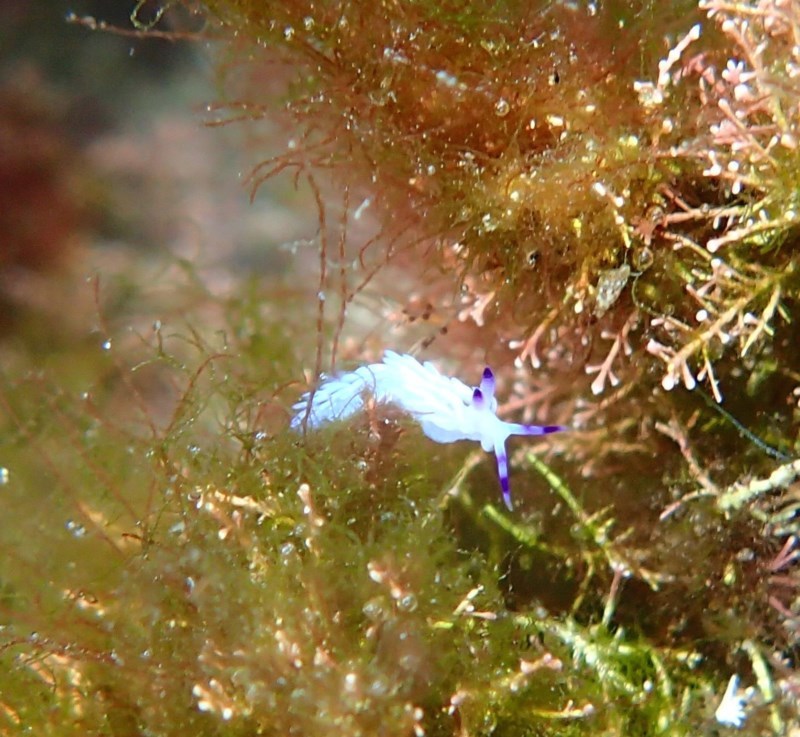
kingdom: Animalia
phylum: Mollusca
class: Gastropoda
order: Nudibranchia
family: Facelinidae
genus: Pteraeolidia
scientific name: Pteraeolidia ianthina
